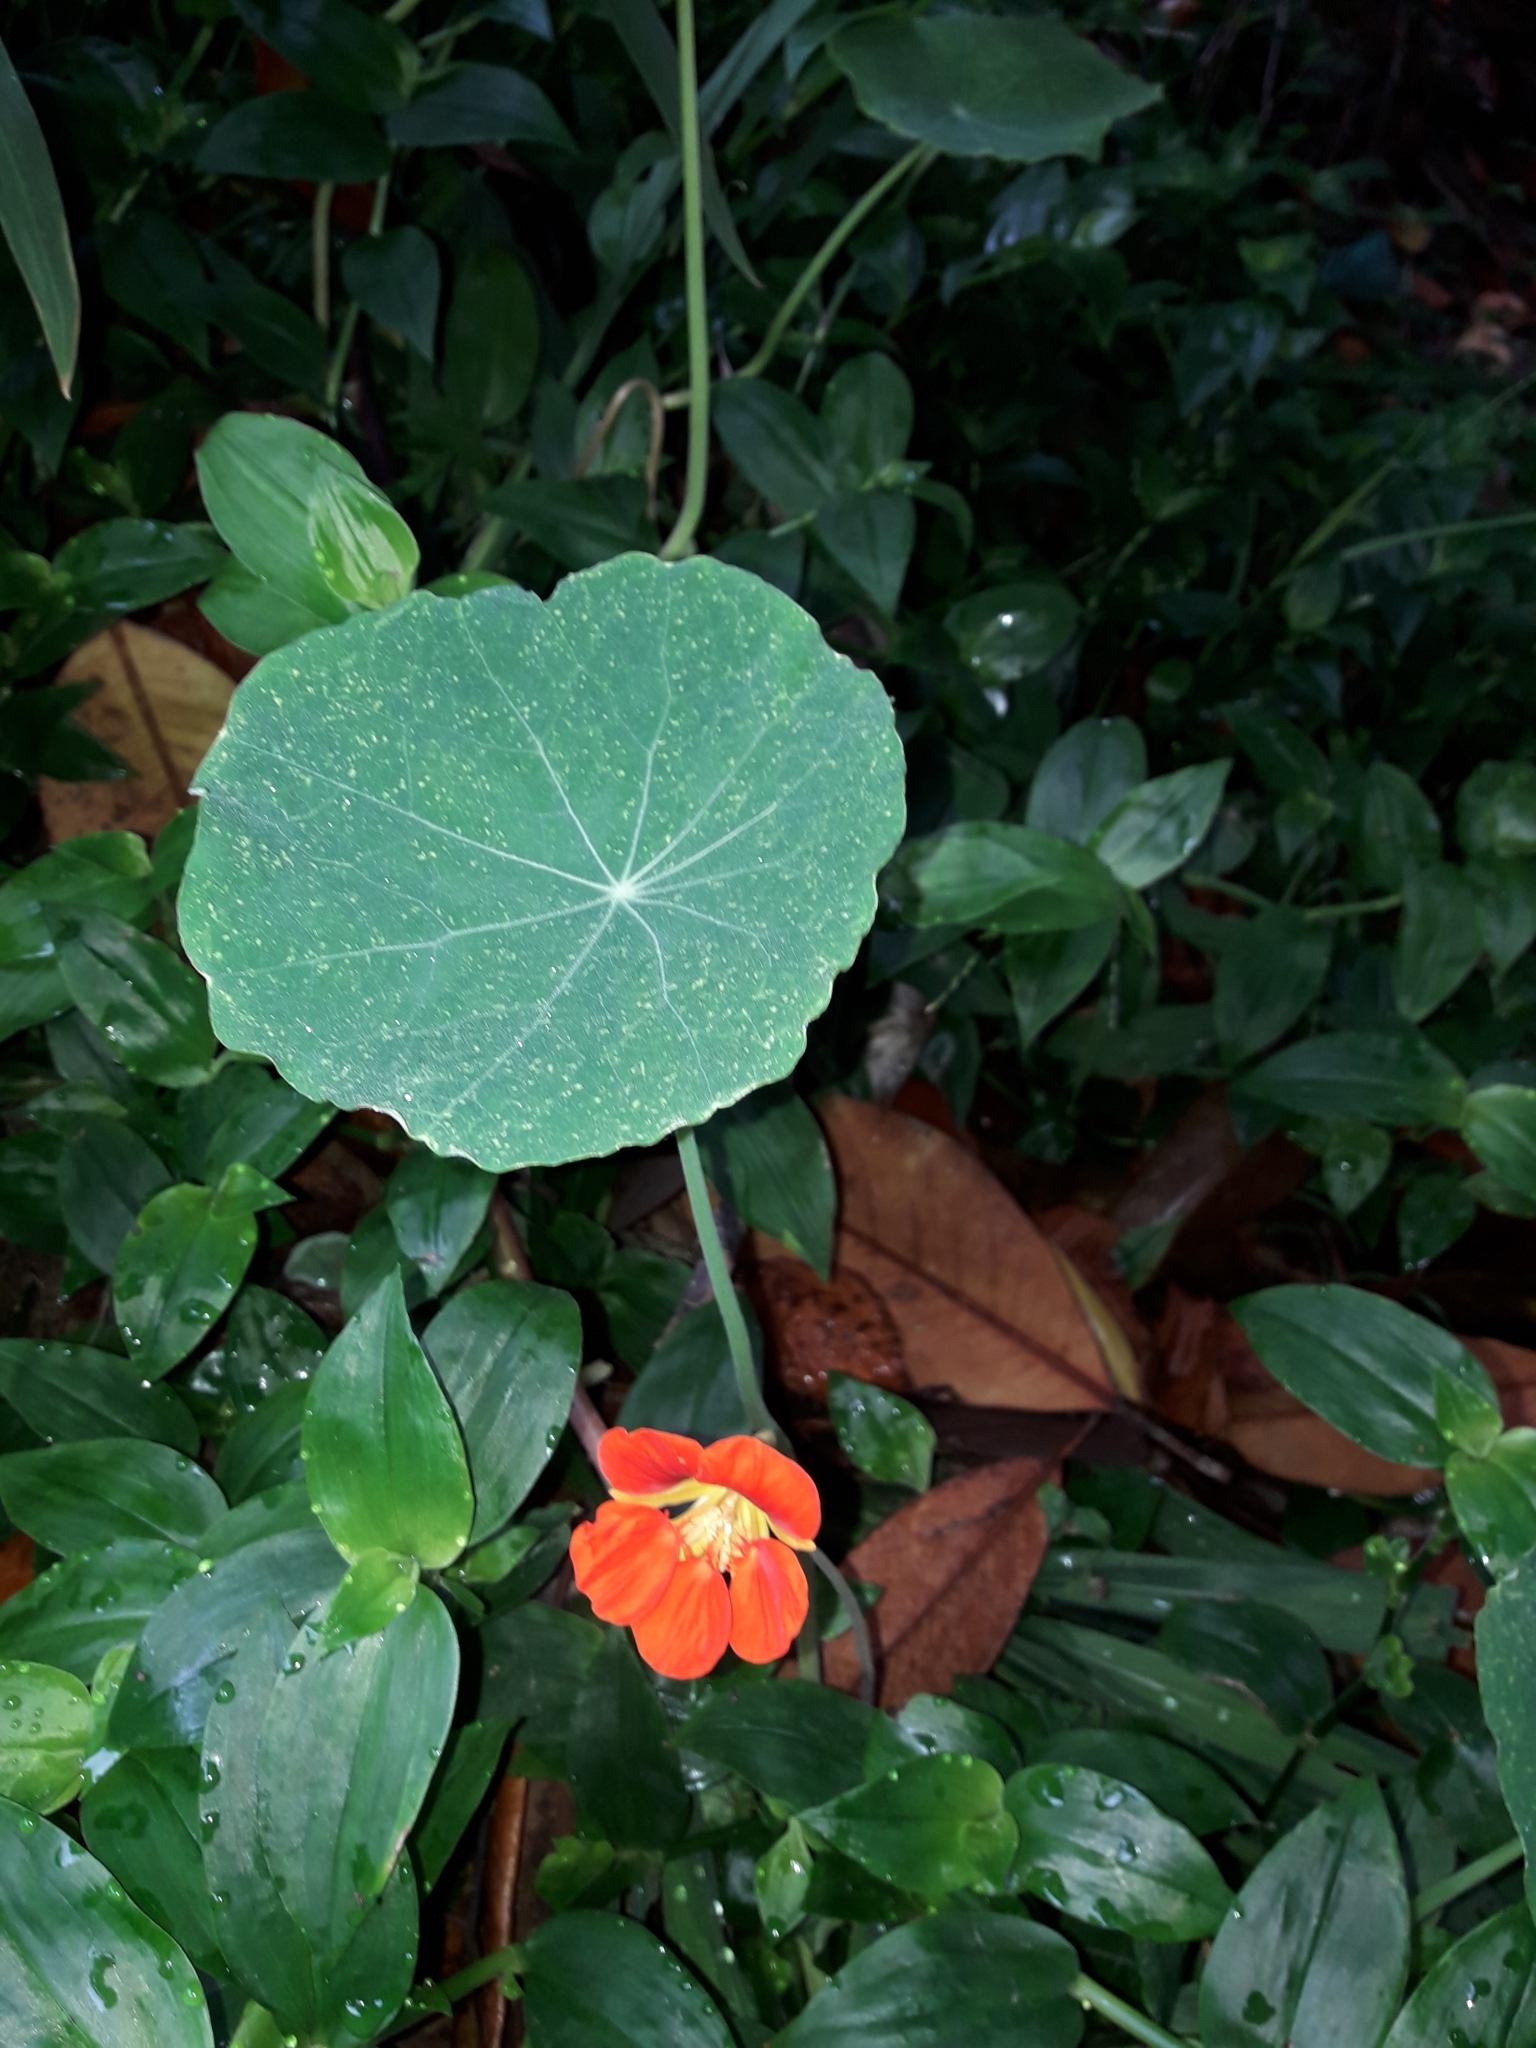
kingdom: Plantae
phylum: Tracheophyta
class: Magnoliopsida
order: Brassicales
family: Tropaeolaceae
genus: Tropaeolum
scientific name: Tropaeolum majus
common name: Nasturtium
